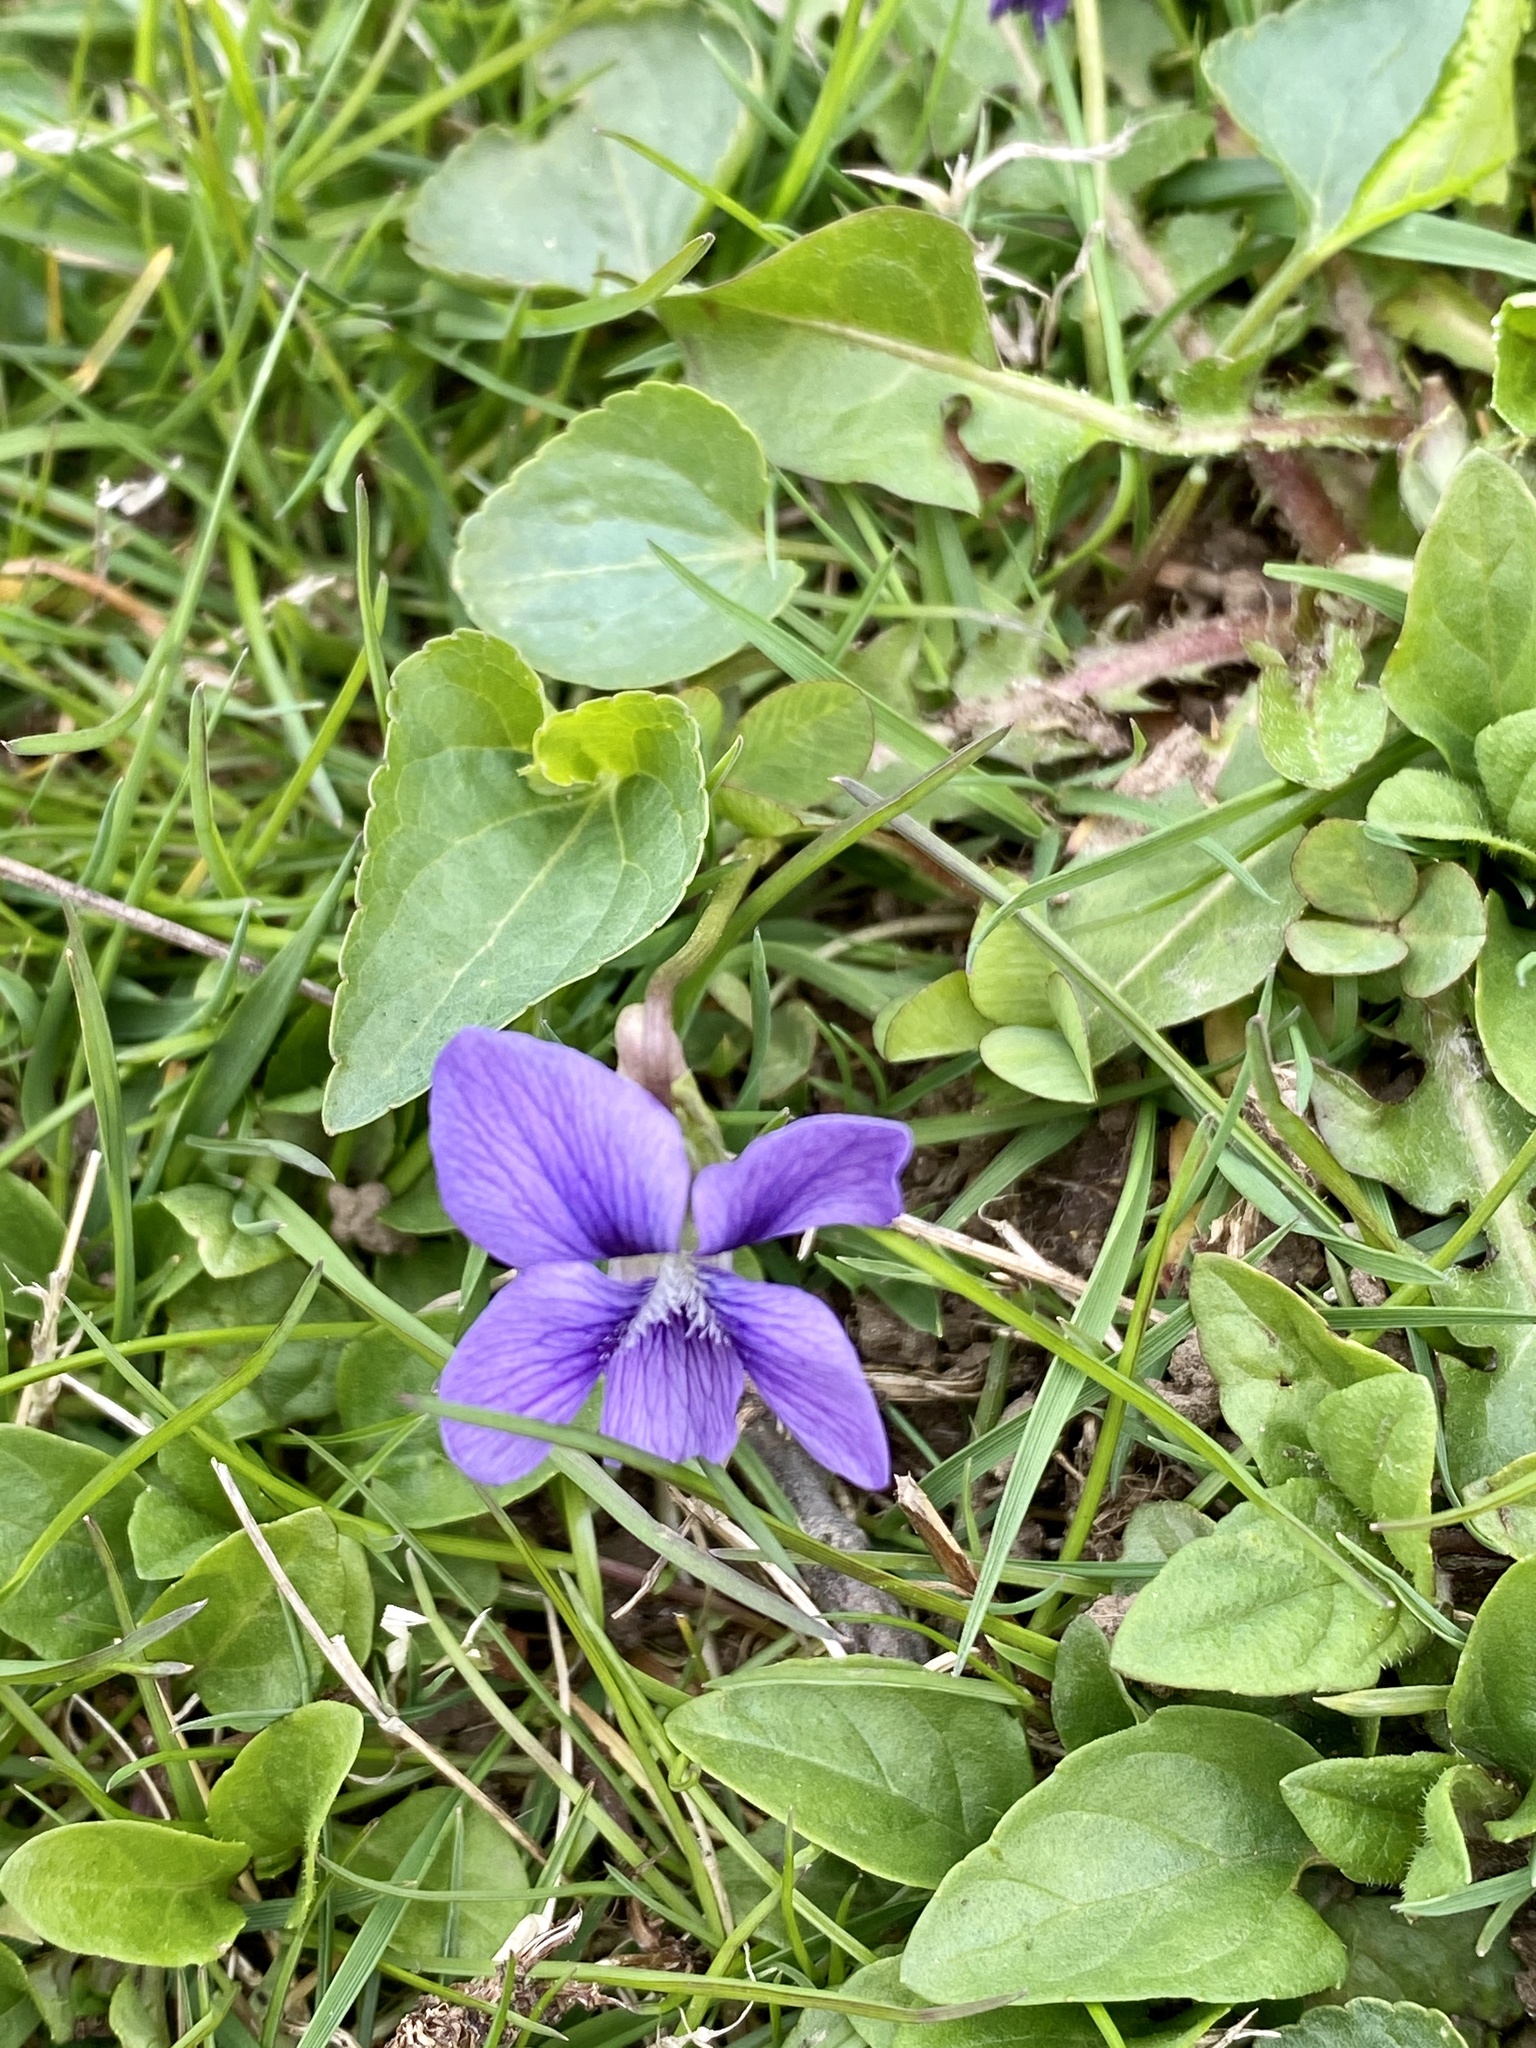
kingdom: Plantae
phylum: Tracheophyta
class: Magnoliopsida
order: Malpighiales
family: Violaceae
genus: Viola
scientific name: Viola sororia
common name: Dooryard violet
